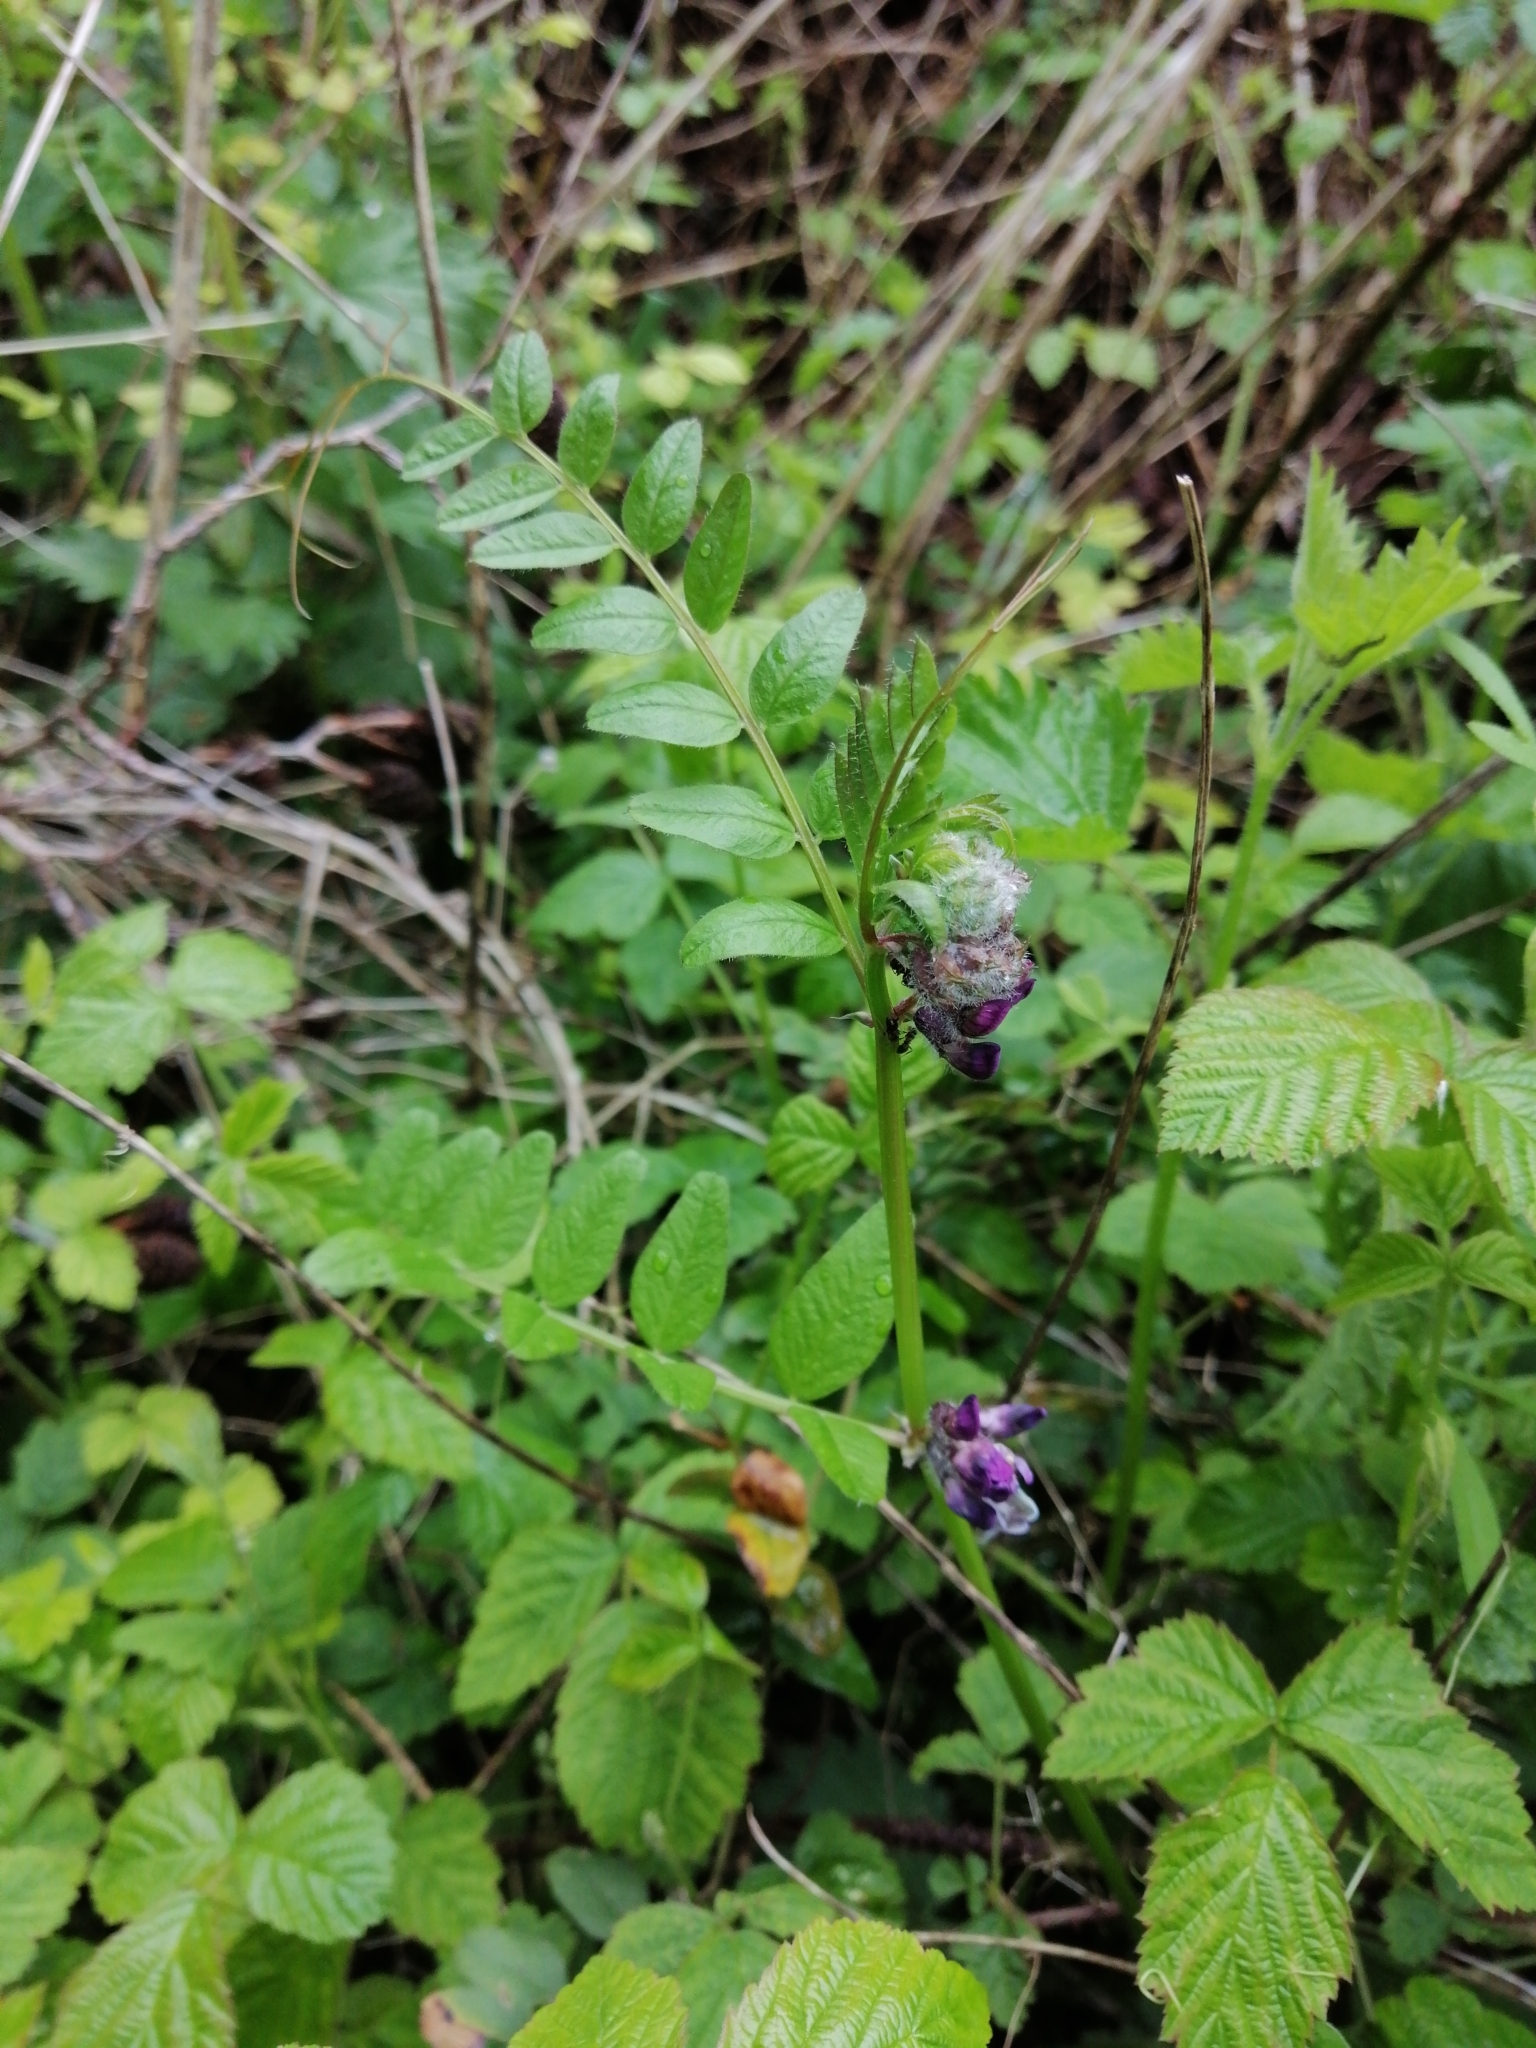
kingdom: Plantae
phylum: Tracheophyta
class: Magnoliopsida
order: Fabales
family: Fabaceae
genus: Vicia
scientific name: Vicia sepium
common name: Bush vetch
